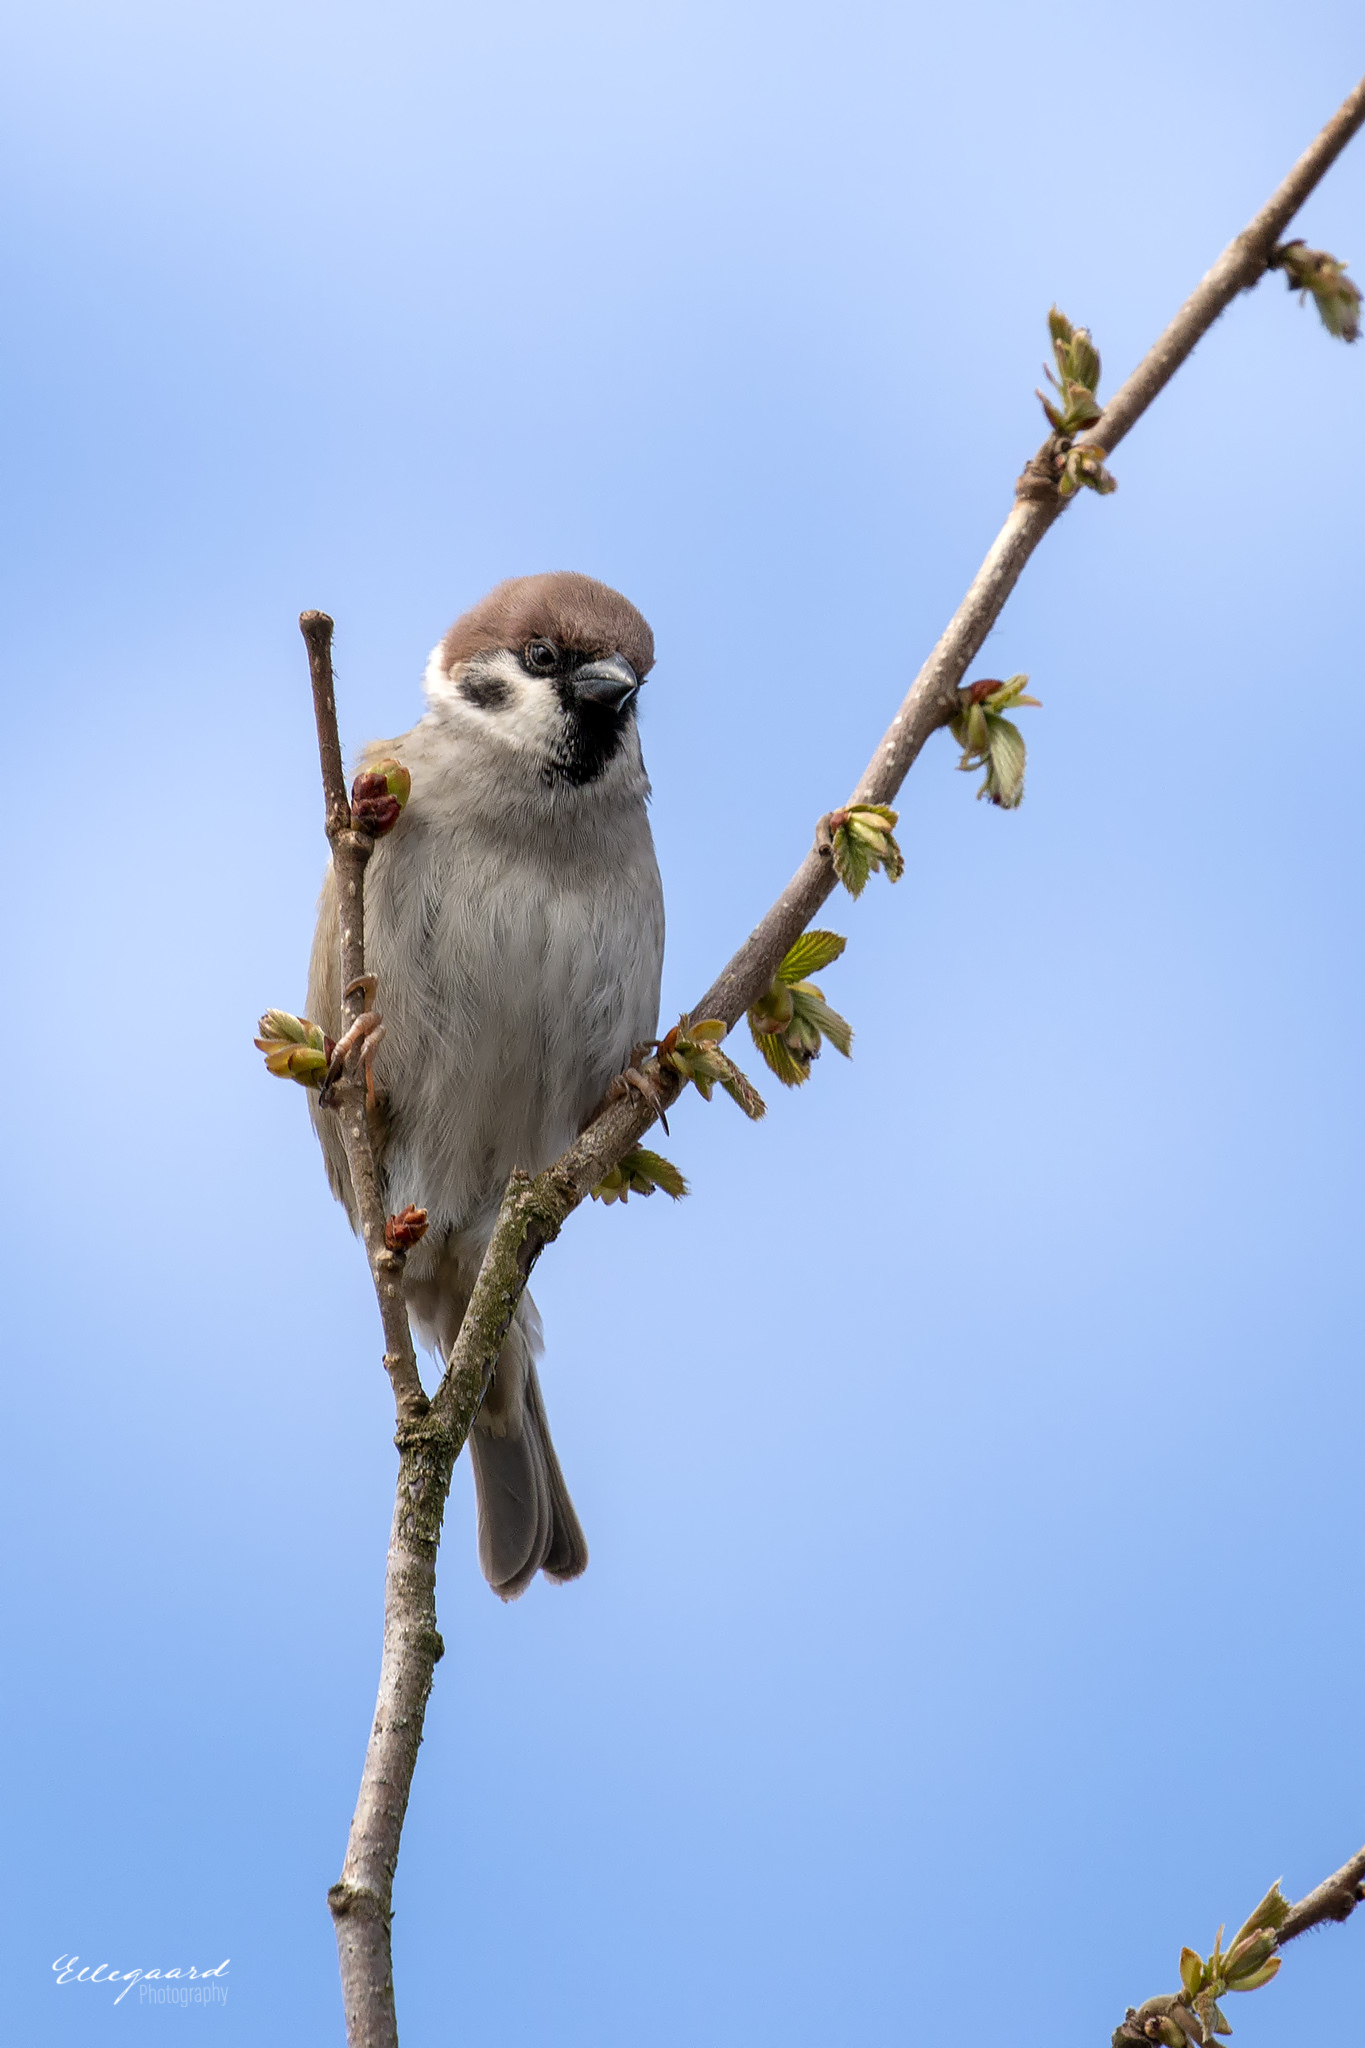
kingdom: Animalia
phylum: Chordata
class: Aves
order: Passeriformes
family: Passeridae
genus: Passer
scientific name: Passer montanus
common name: Eurasian tree sparrow
